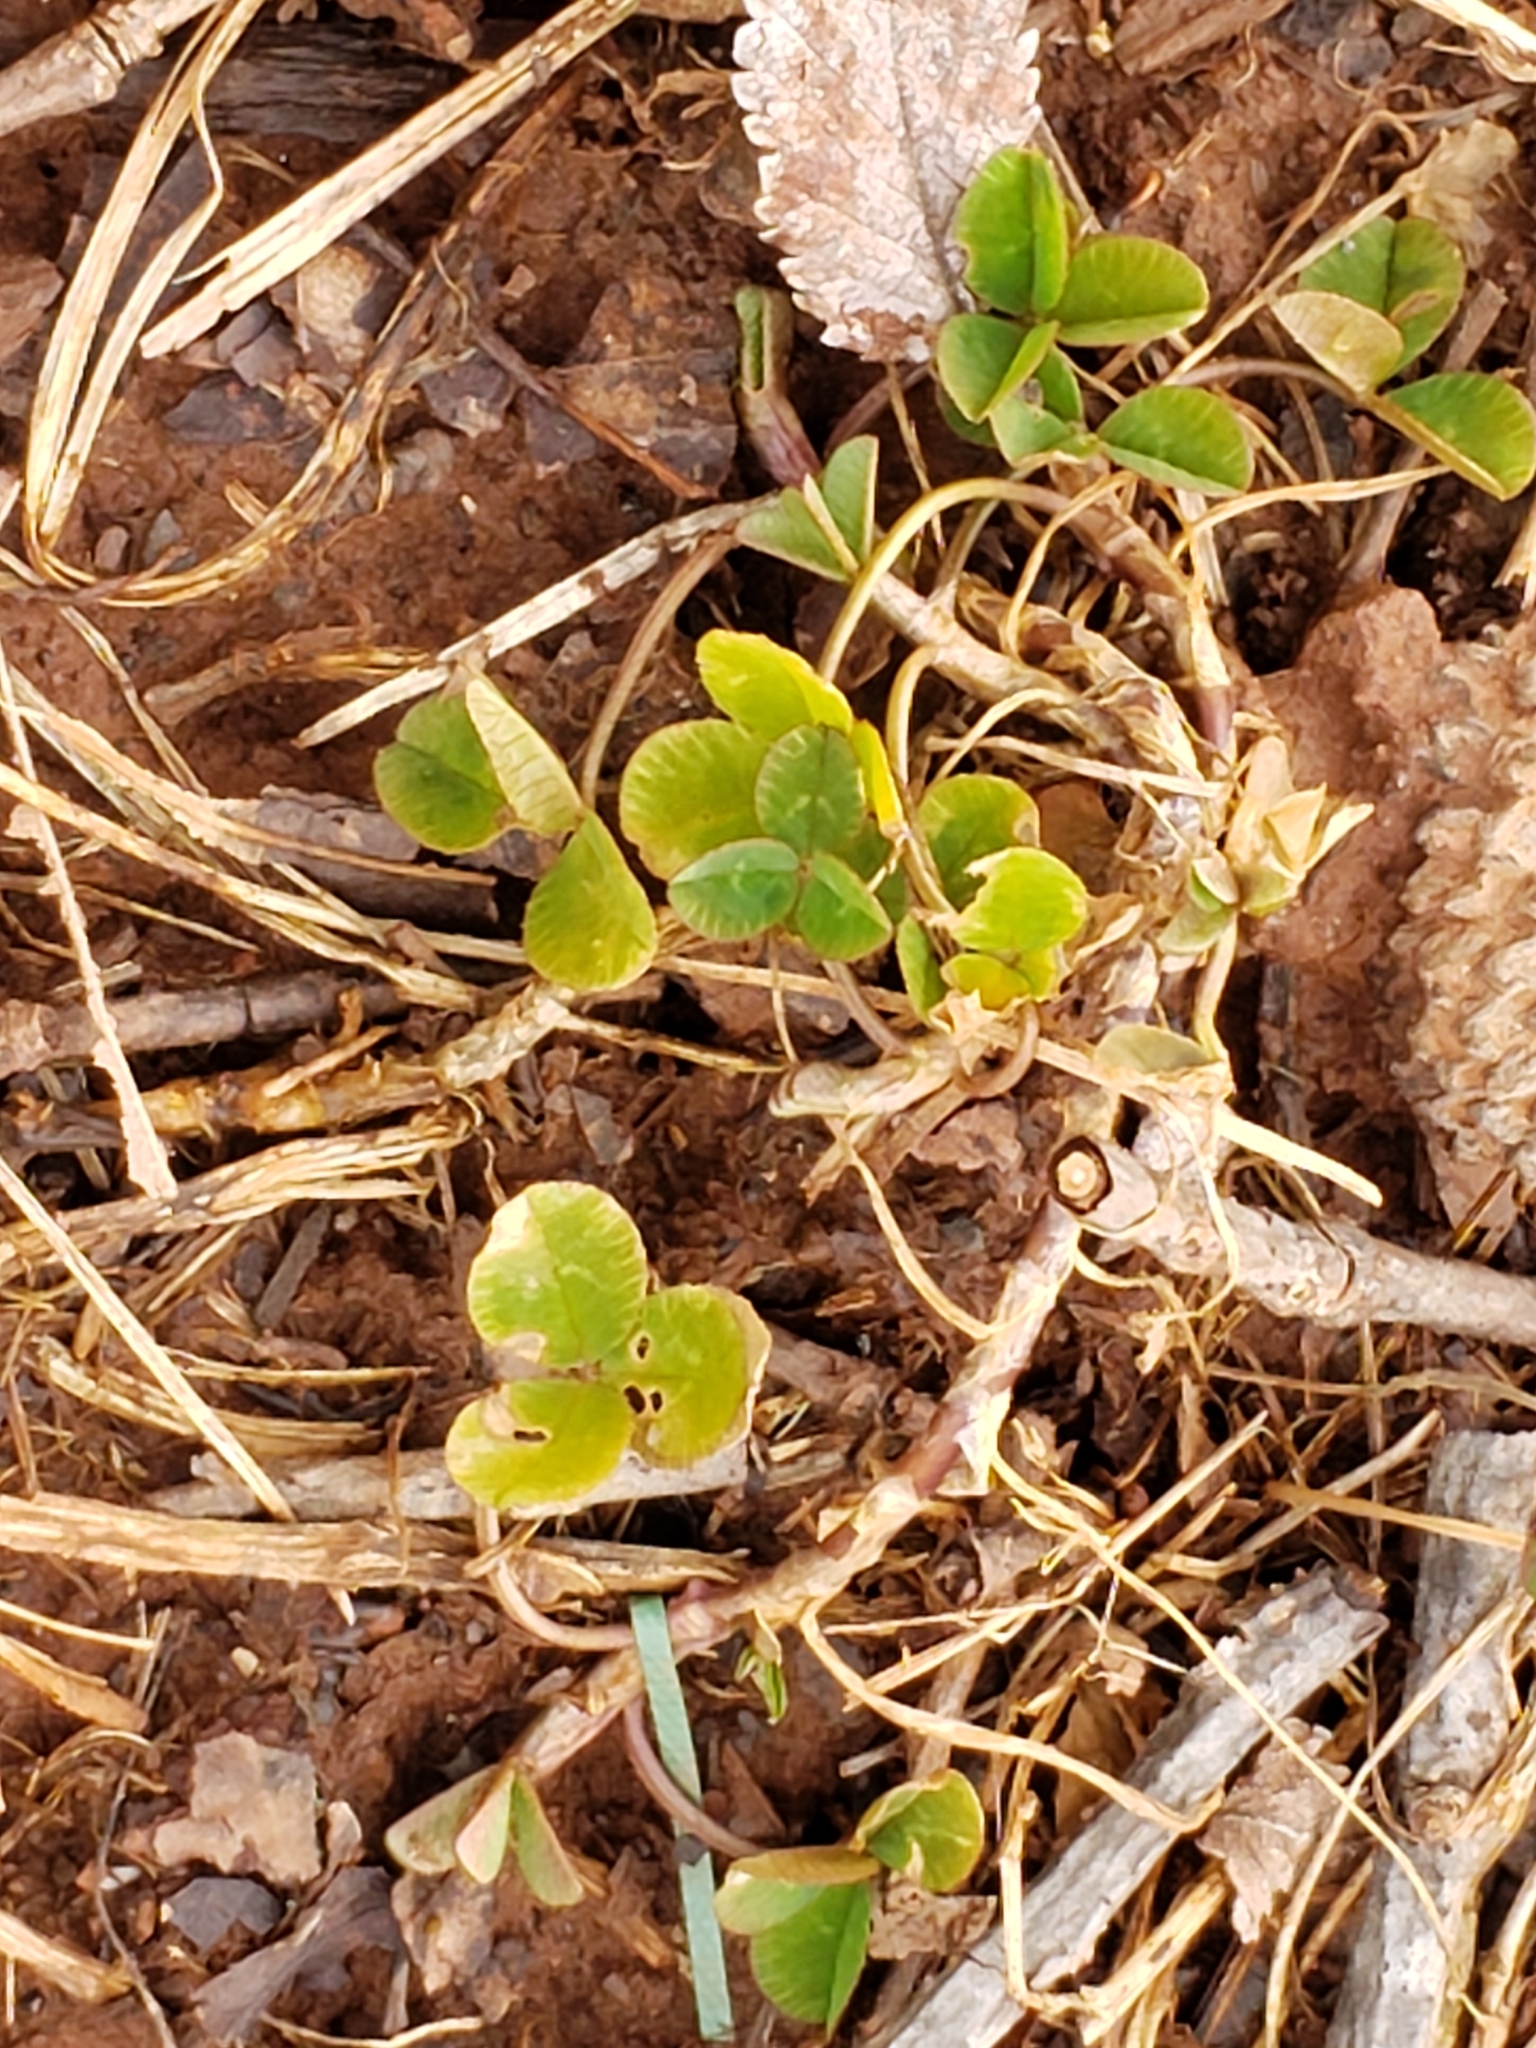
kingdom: Plantae
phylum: Tracheophyta
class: Magnoliopsida
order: Fabales
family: Fabaceae
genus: Trifolium
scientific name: Trifolium repens
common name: White clover
